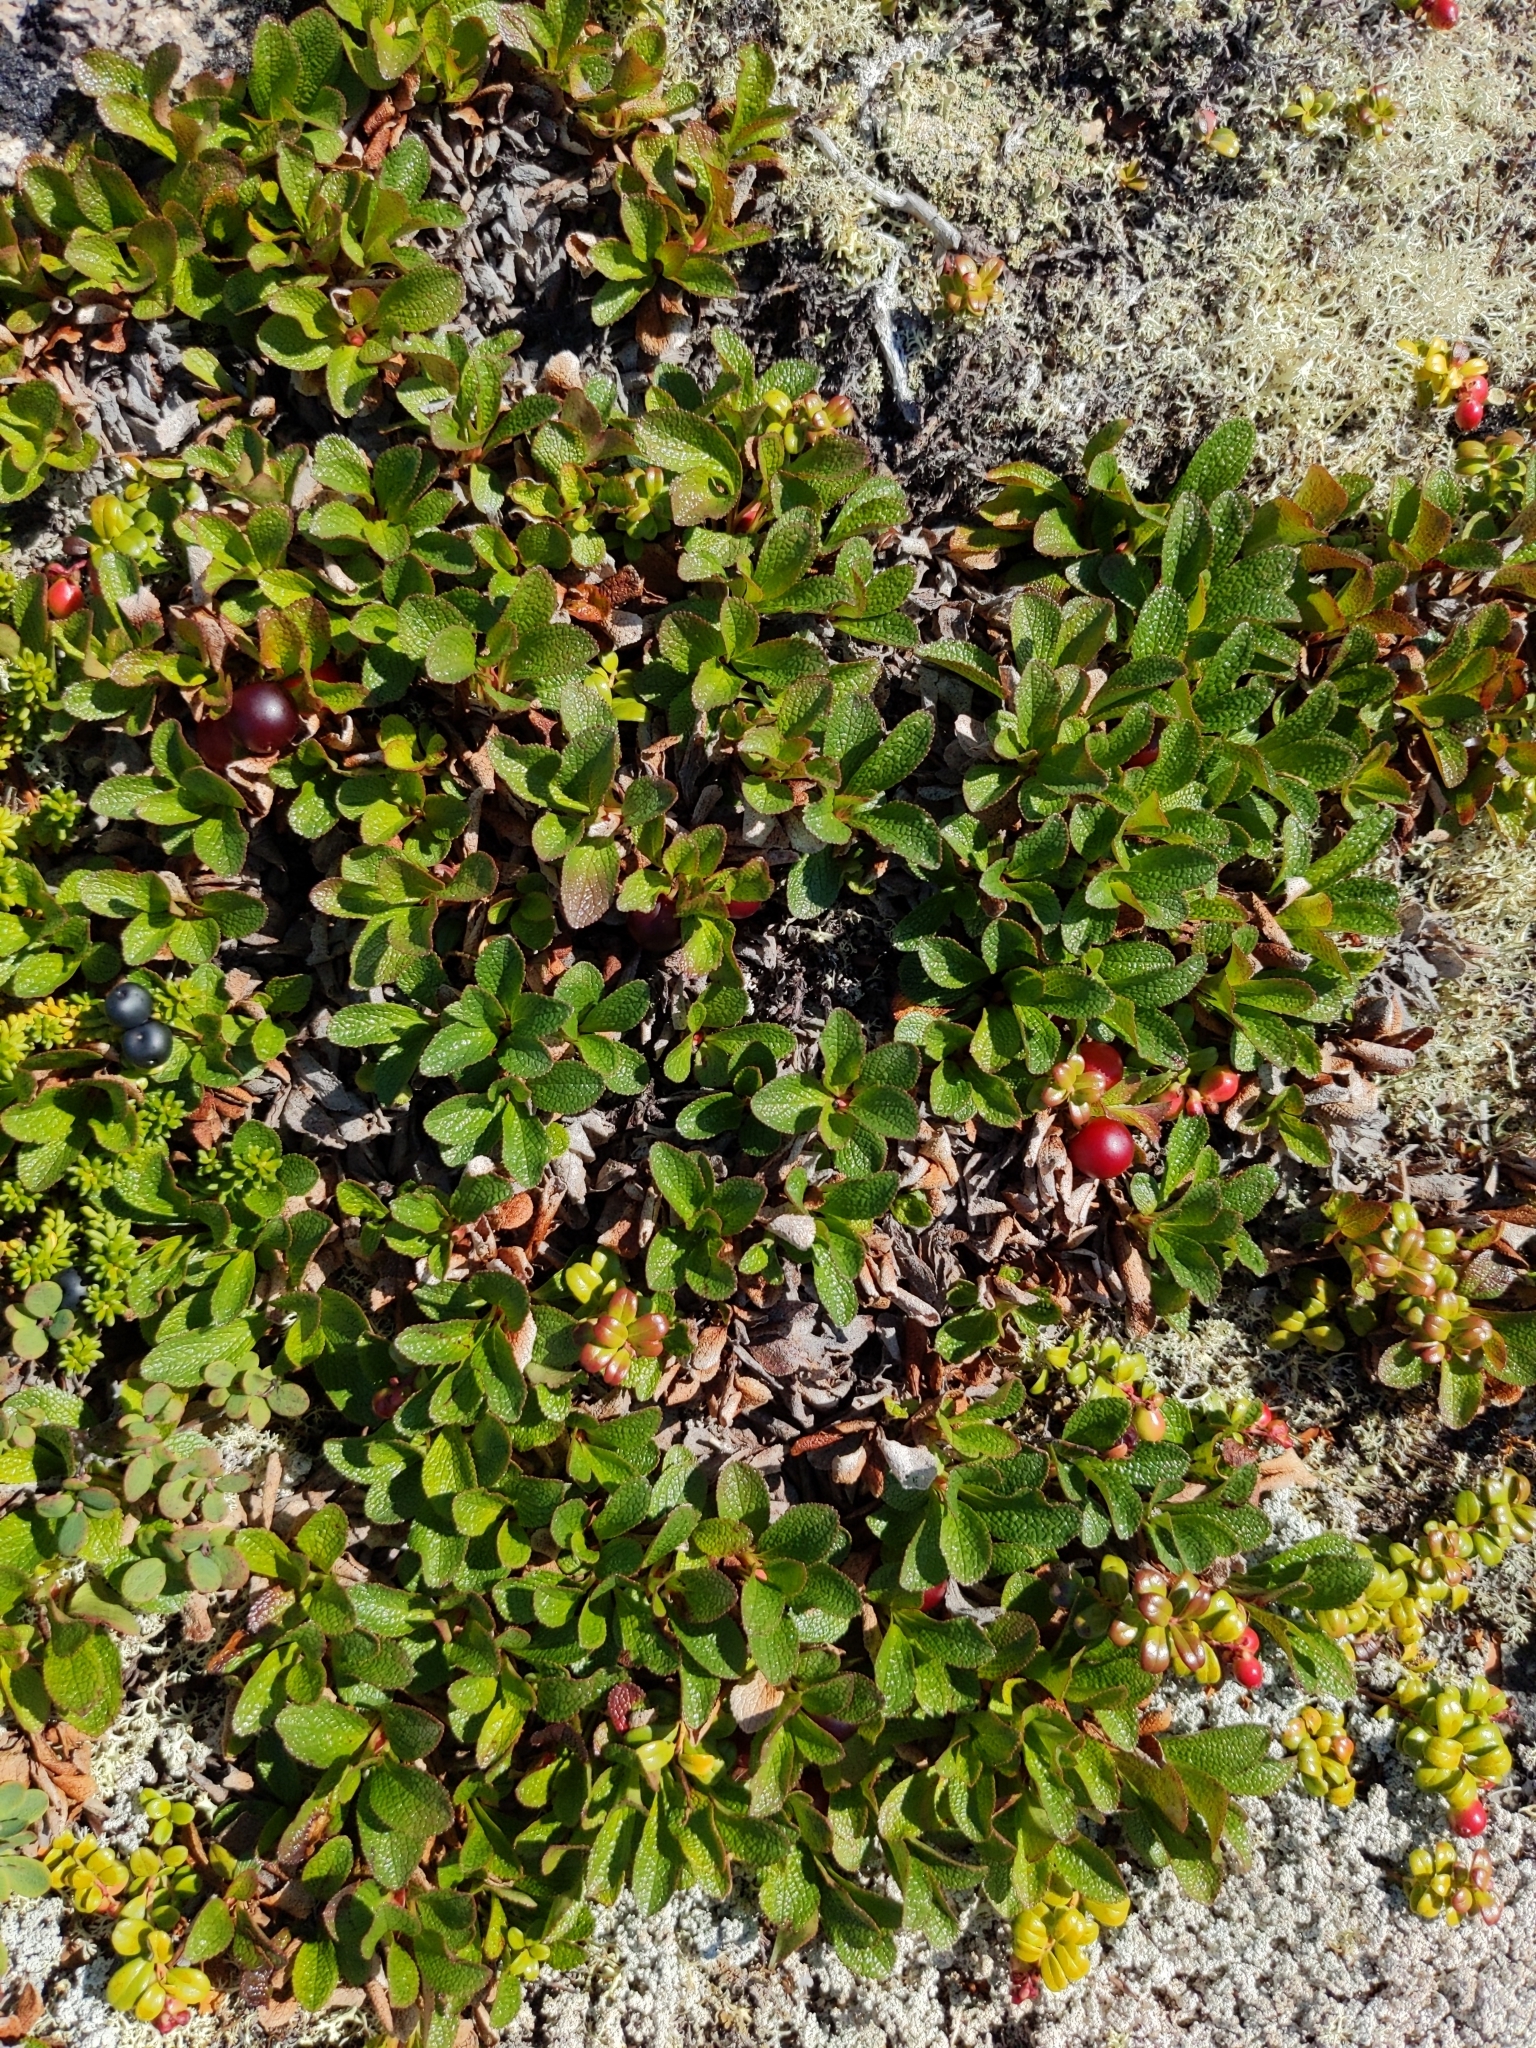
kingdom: Plantae
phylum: Tracheophyta
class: Magnoliopsida
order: Ericales
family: Ericaceae
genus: Arctostaphylos
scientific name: Arctostaphylos alpinus
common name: Alpine bearberry
